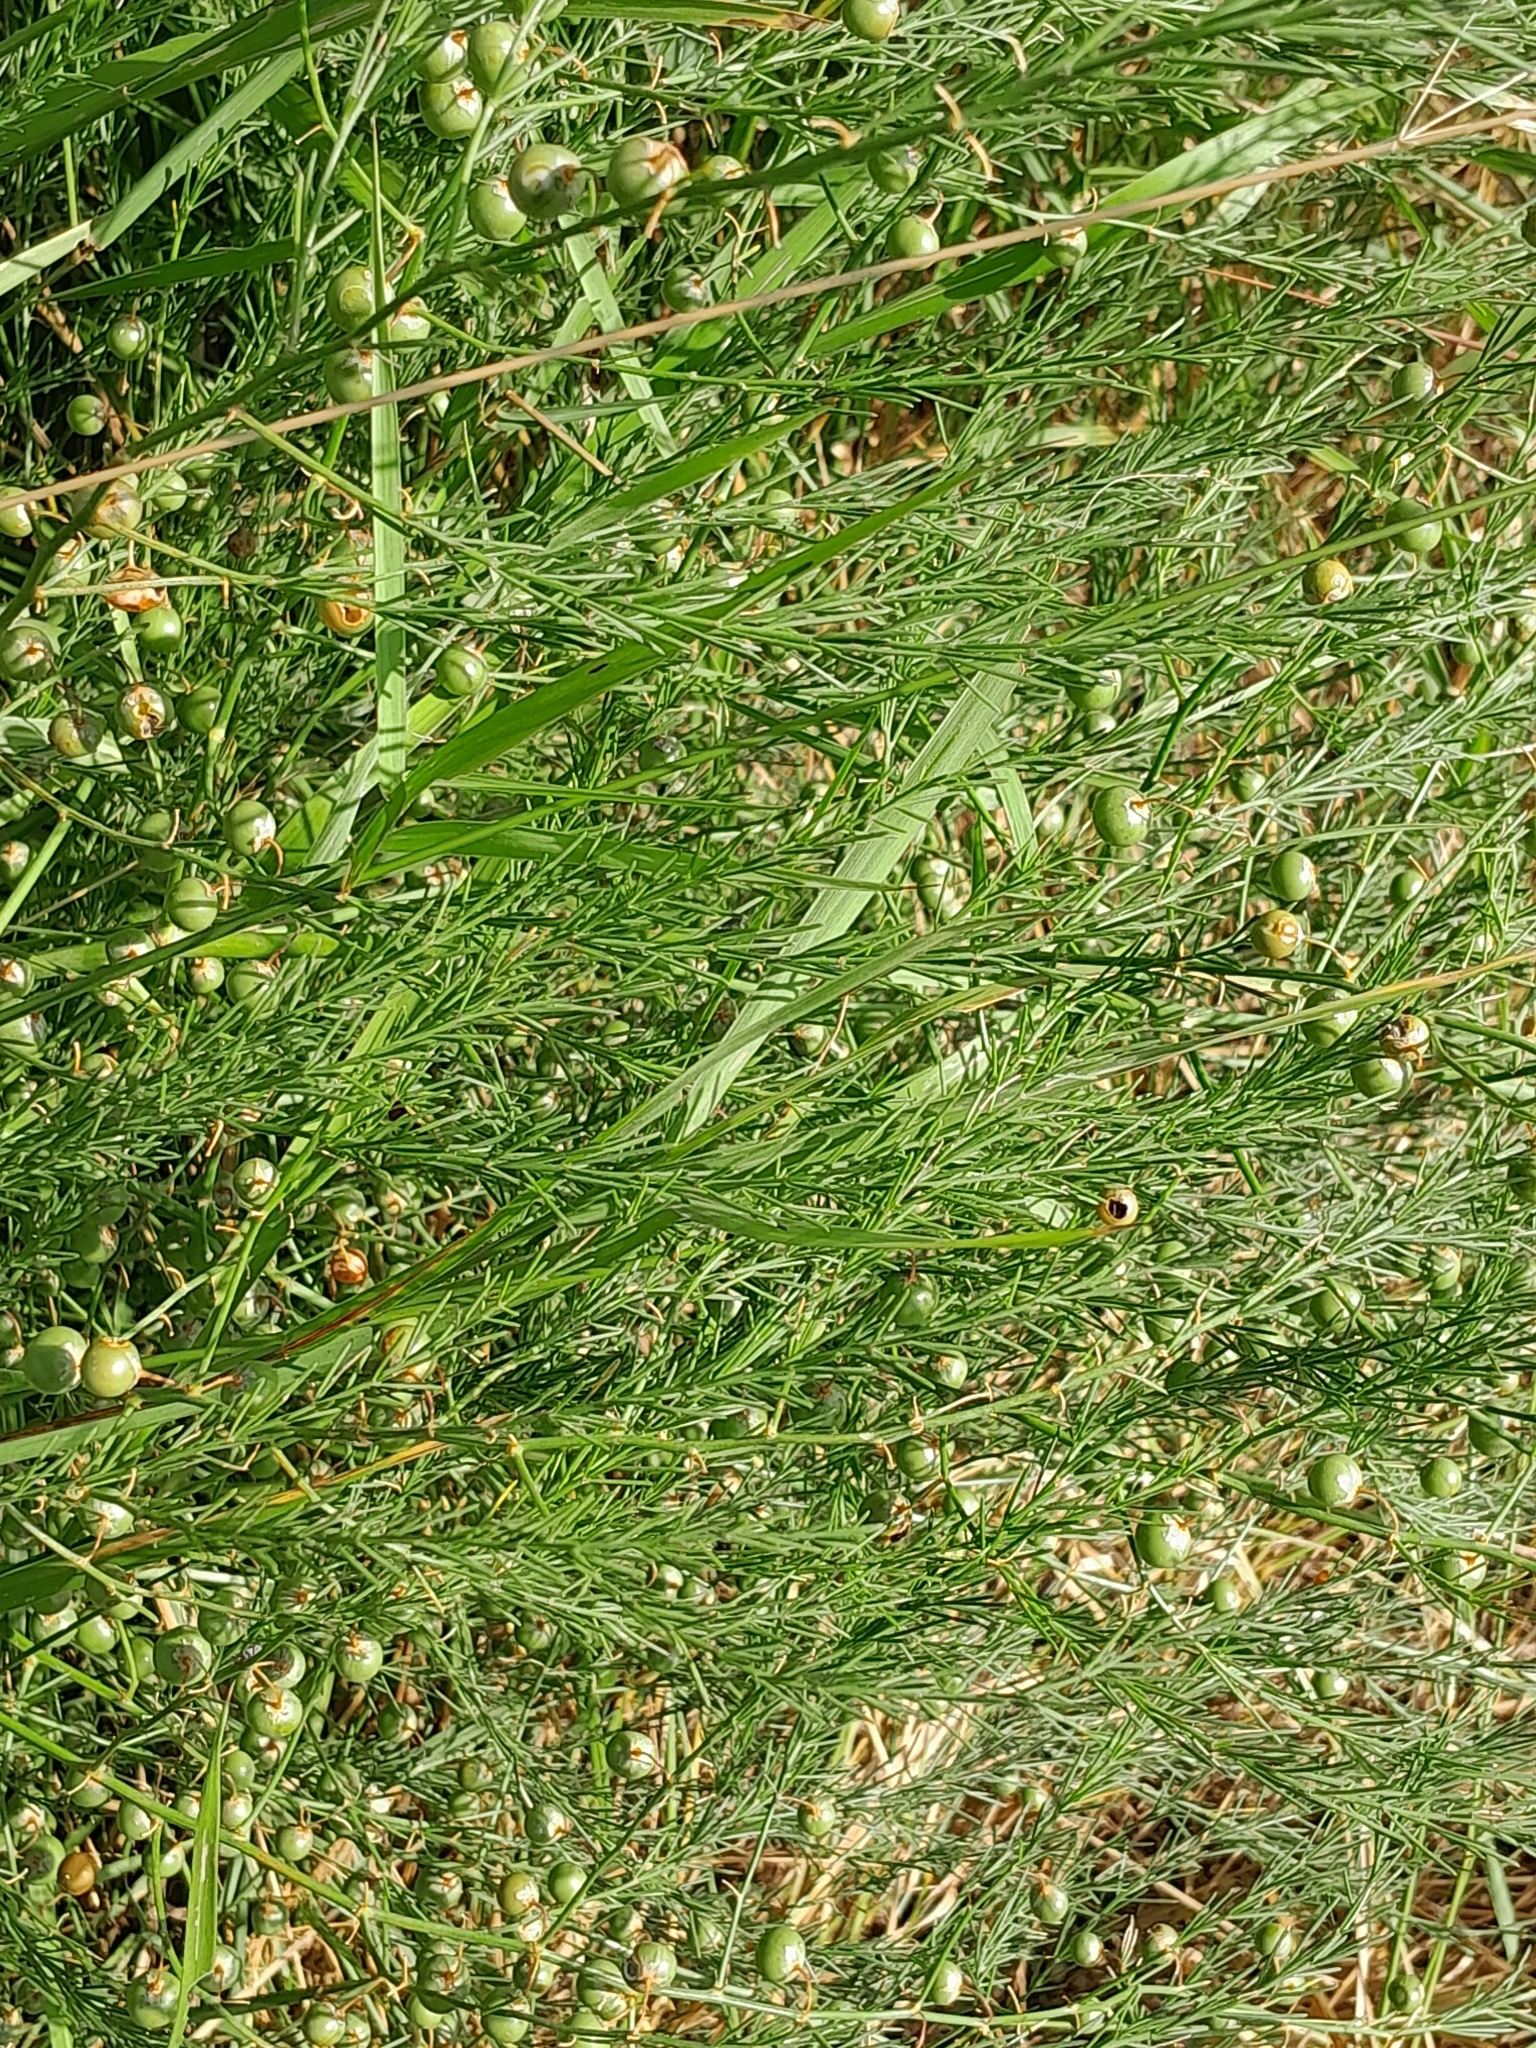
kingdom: Plantae
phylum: Tracheophyta
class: Liliopsida
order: Asparagales
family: Asparagaceae
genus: Asparagus
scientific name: Asparagus officinalis
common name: Garden asparagus
